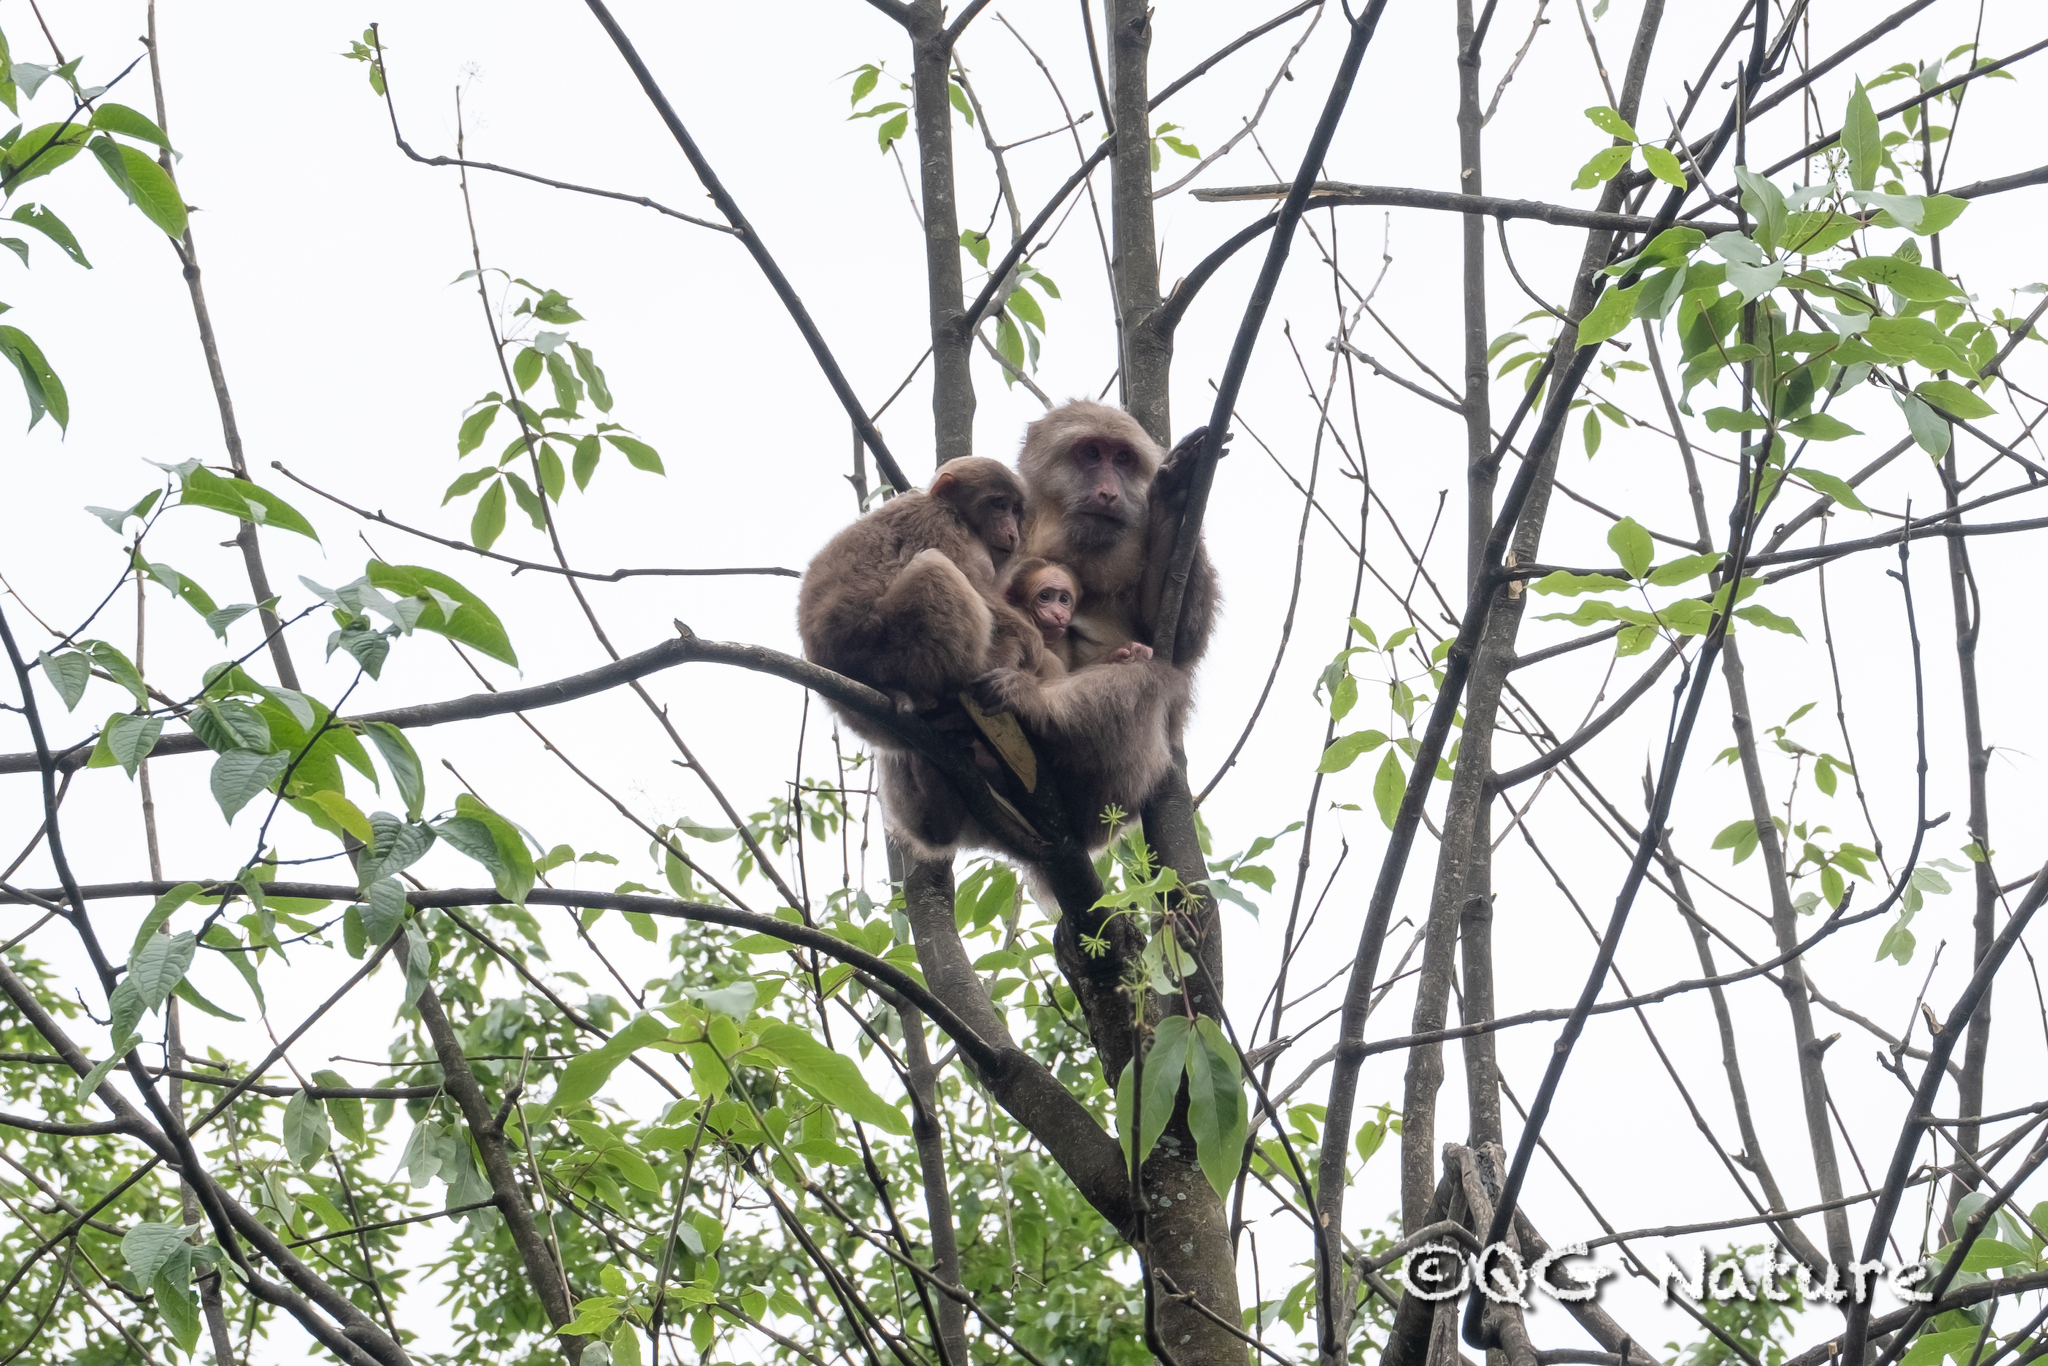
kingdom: Animalia
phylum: Chordata
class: Mammalia
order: Primates
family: Cercopithecidae
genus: Macaca
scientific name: Macaca thibetana
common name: Tibetan macaque
